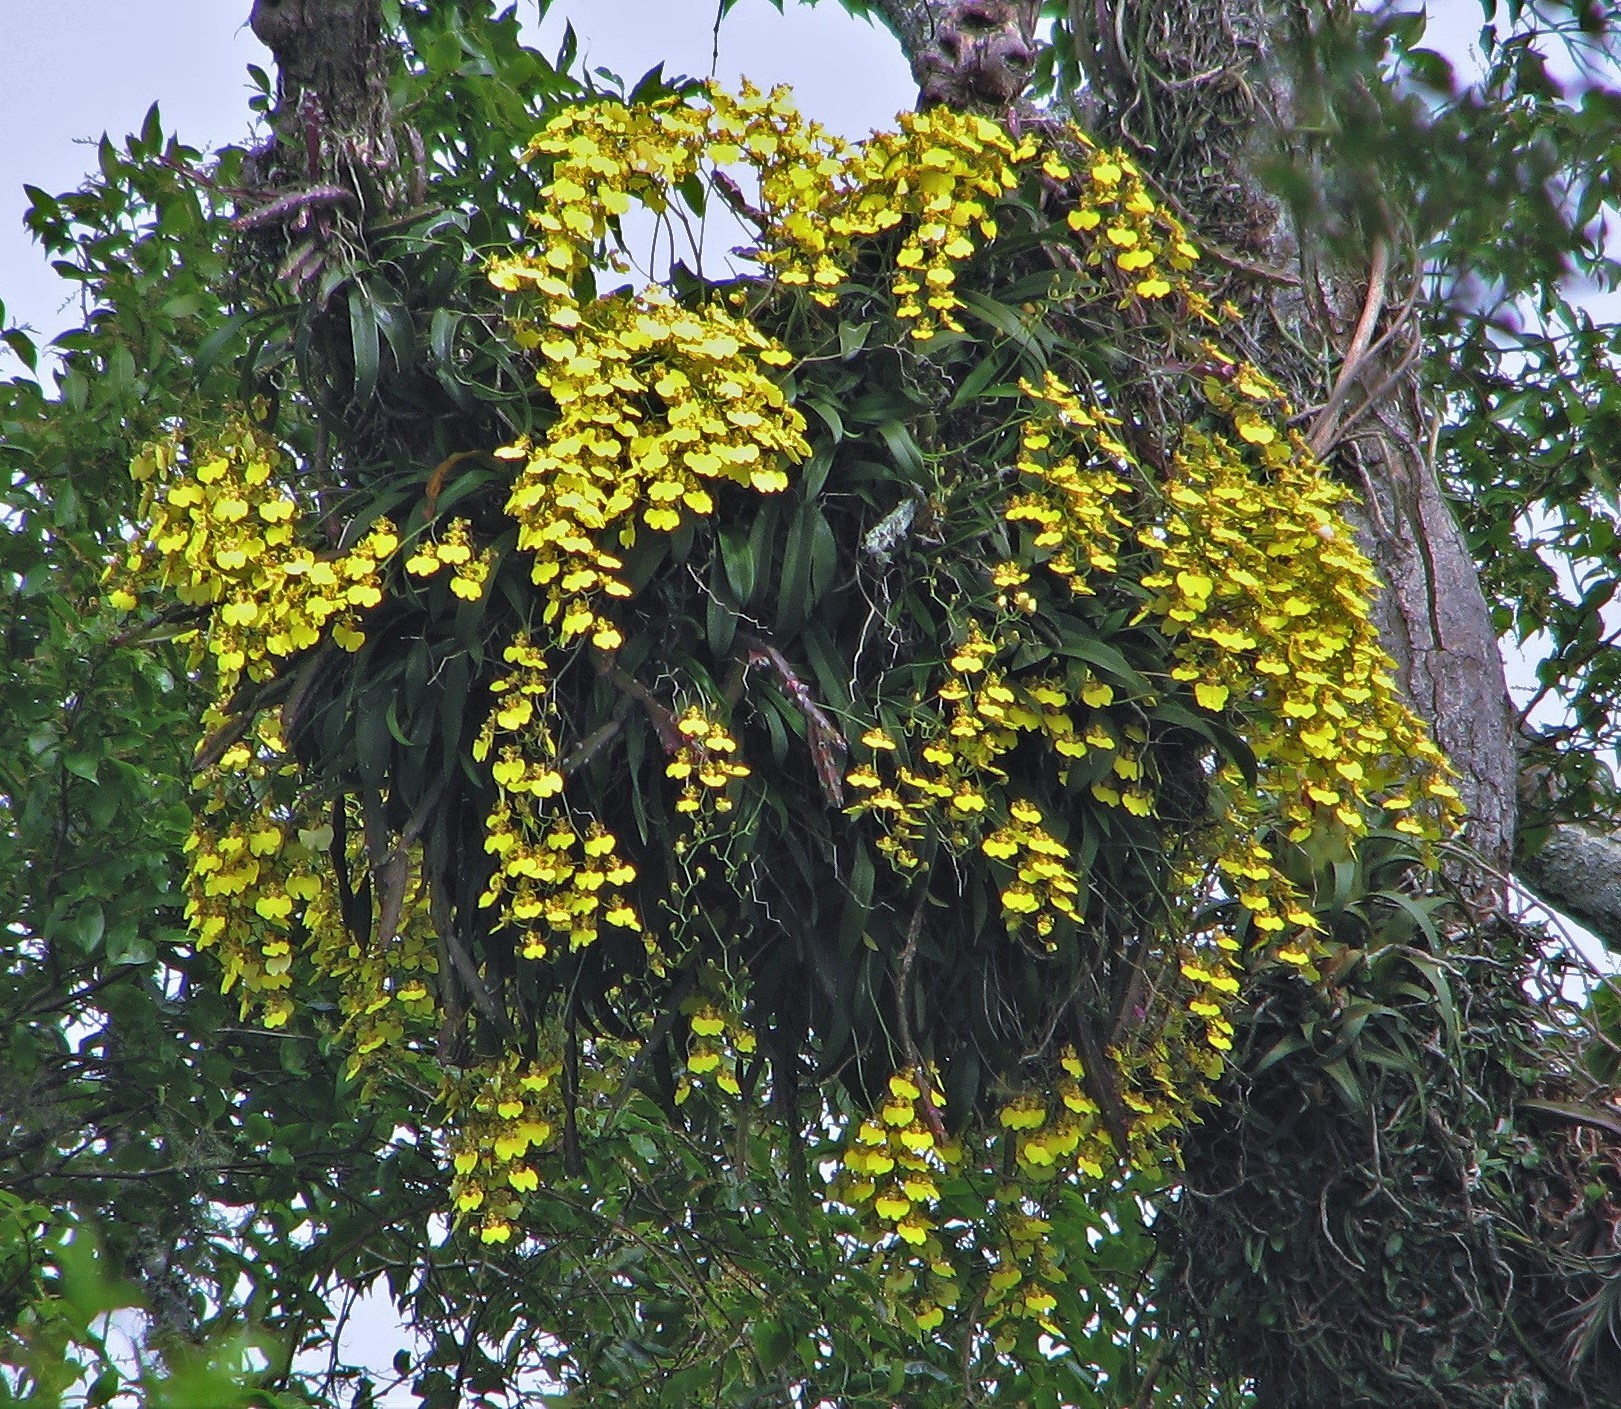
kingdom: Plantae
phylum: Tracheophyta
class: Liliopsida
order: Asparagales
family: Orchidaceae
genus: Gomesa
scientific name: Gomesa bifolia
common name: Dancing ladies
